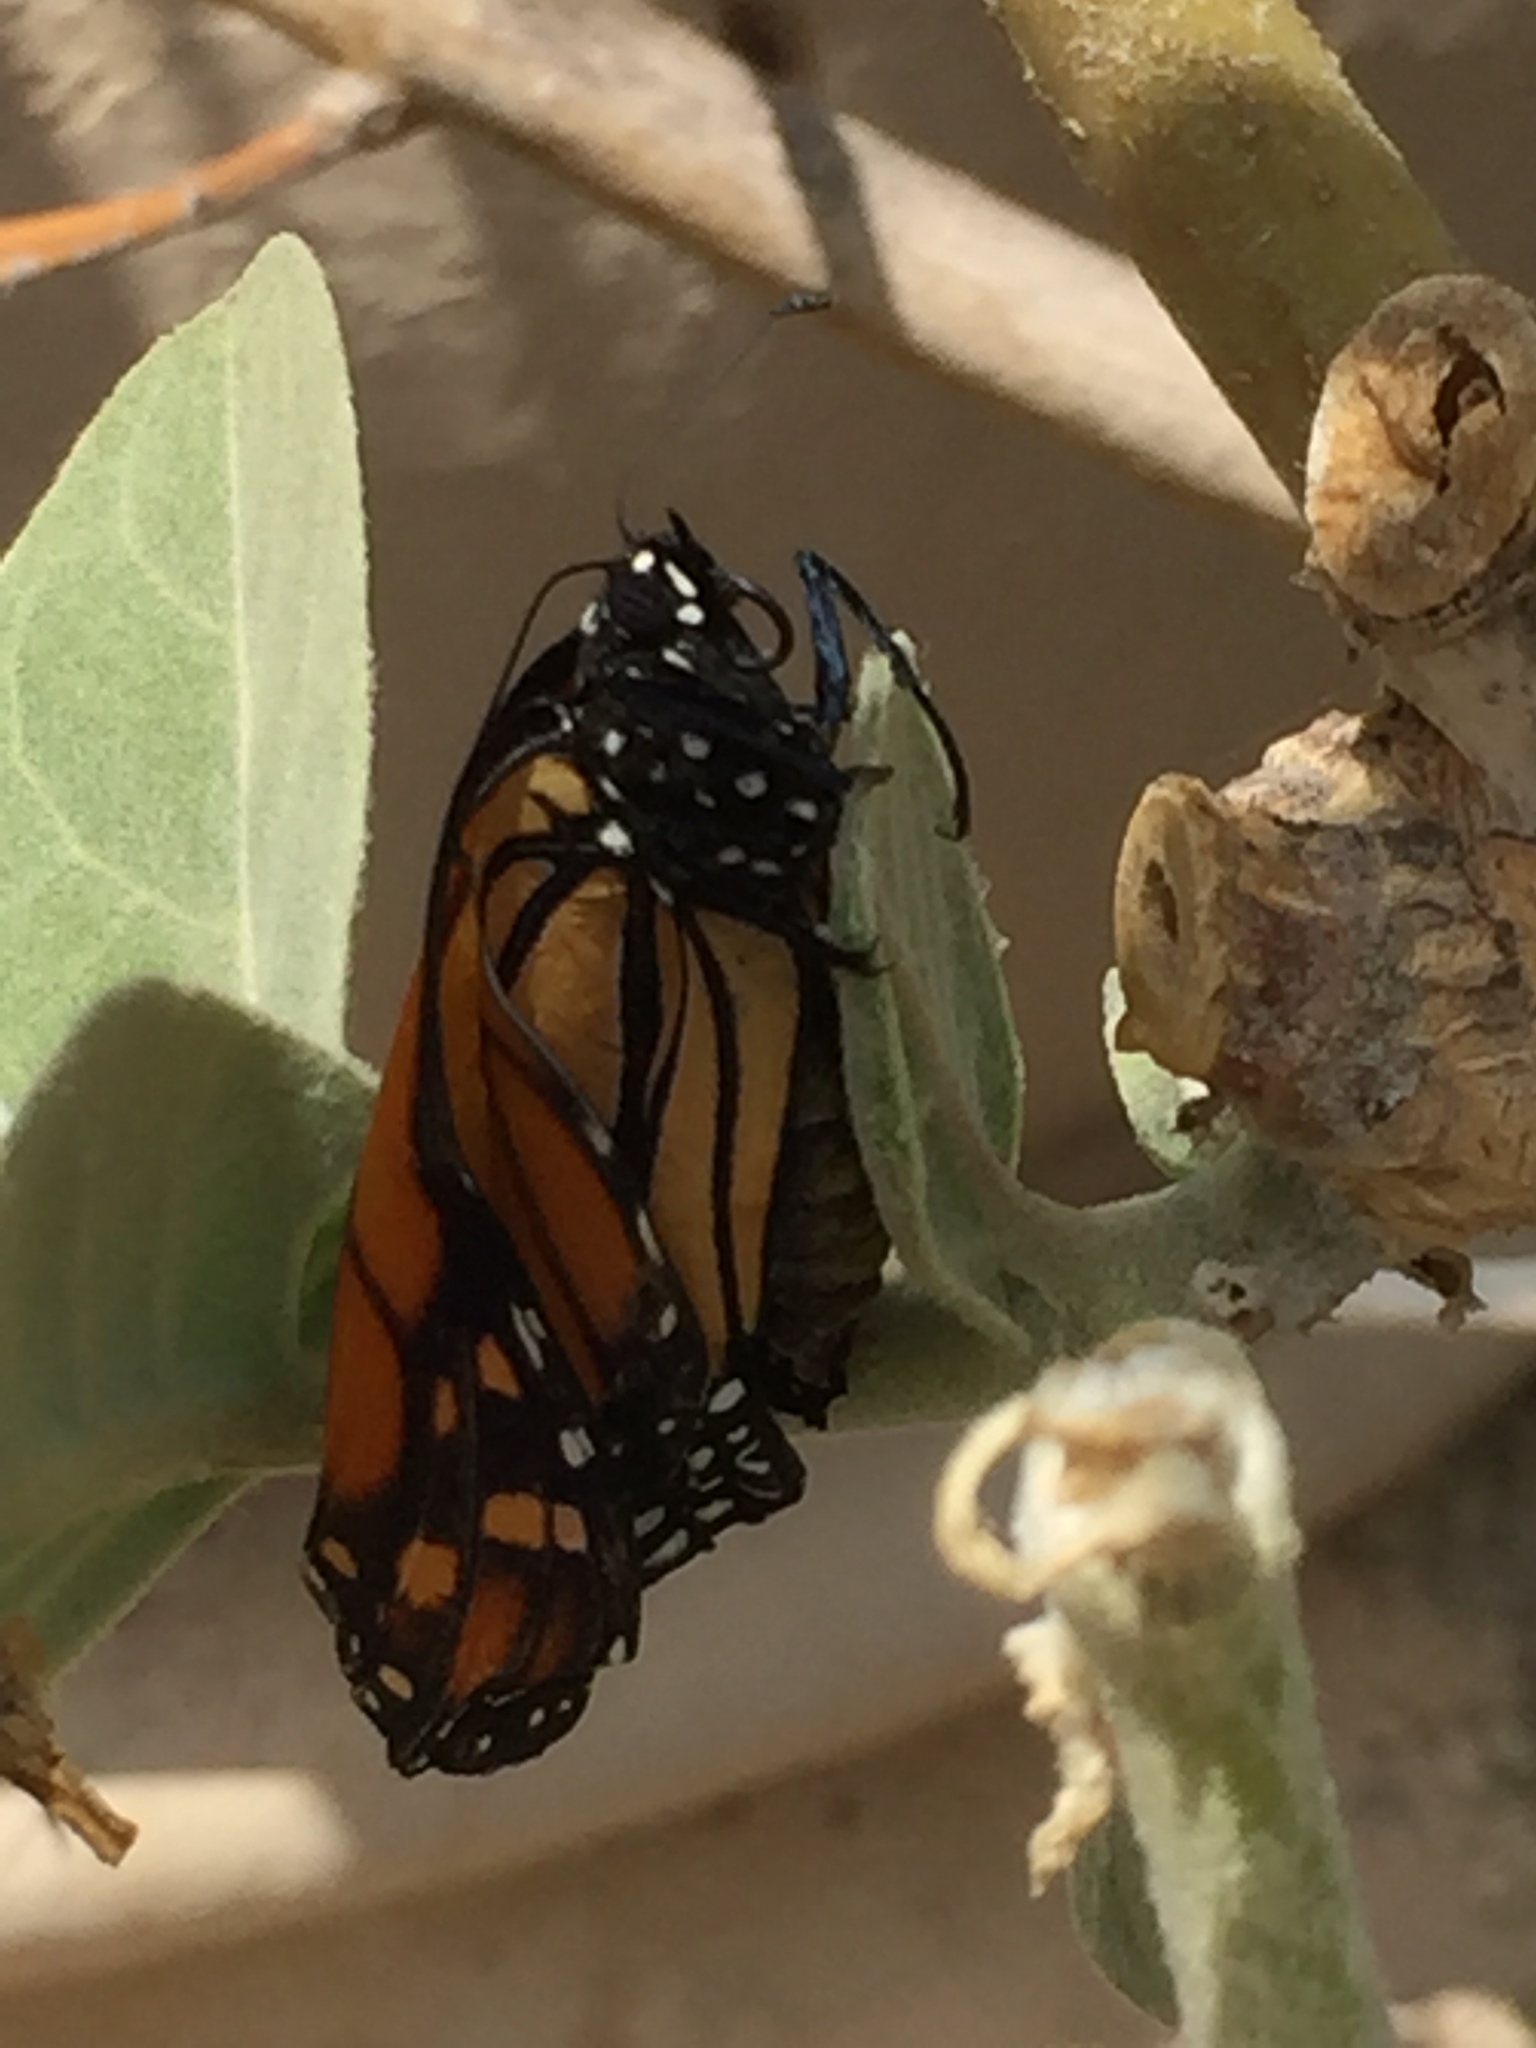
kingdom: Animalia
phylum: Arthropoda
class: Insecta
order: Lepidoptera
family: Nymphalidae
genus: Danaus
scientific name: Danaus plexippus
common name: Monarch
